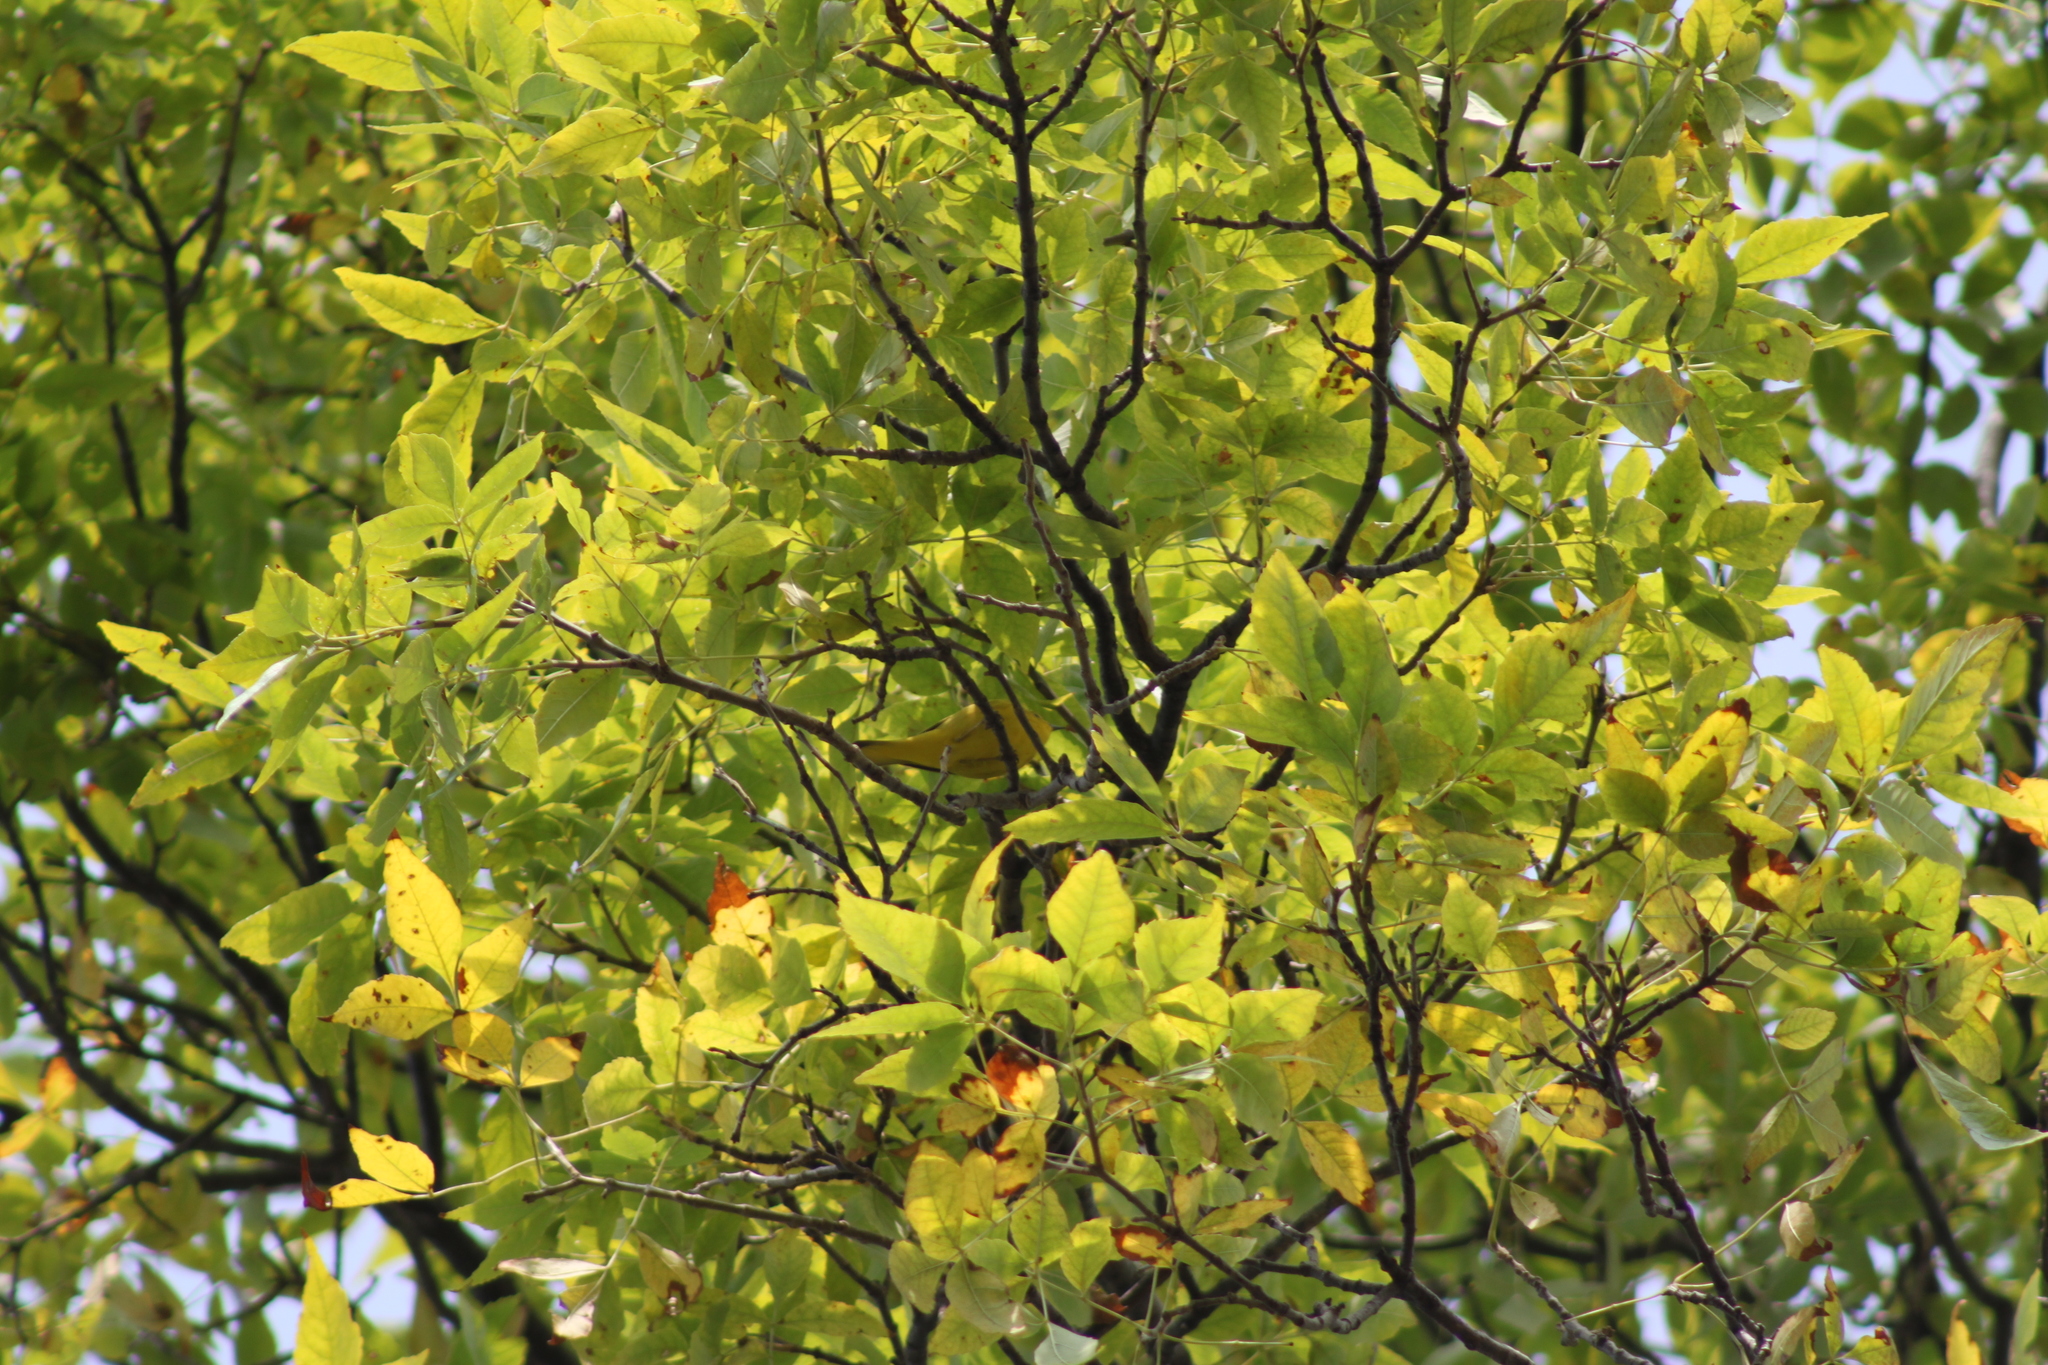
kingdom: Animalia
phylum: Chordata
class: Aves
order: Passeriformes
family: Parulidae
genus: Setophaga
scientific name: Setophaga petechia
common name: Yellow warbler
